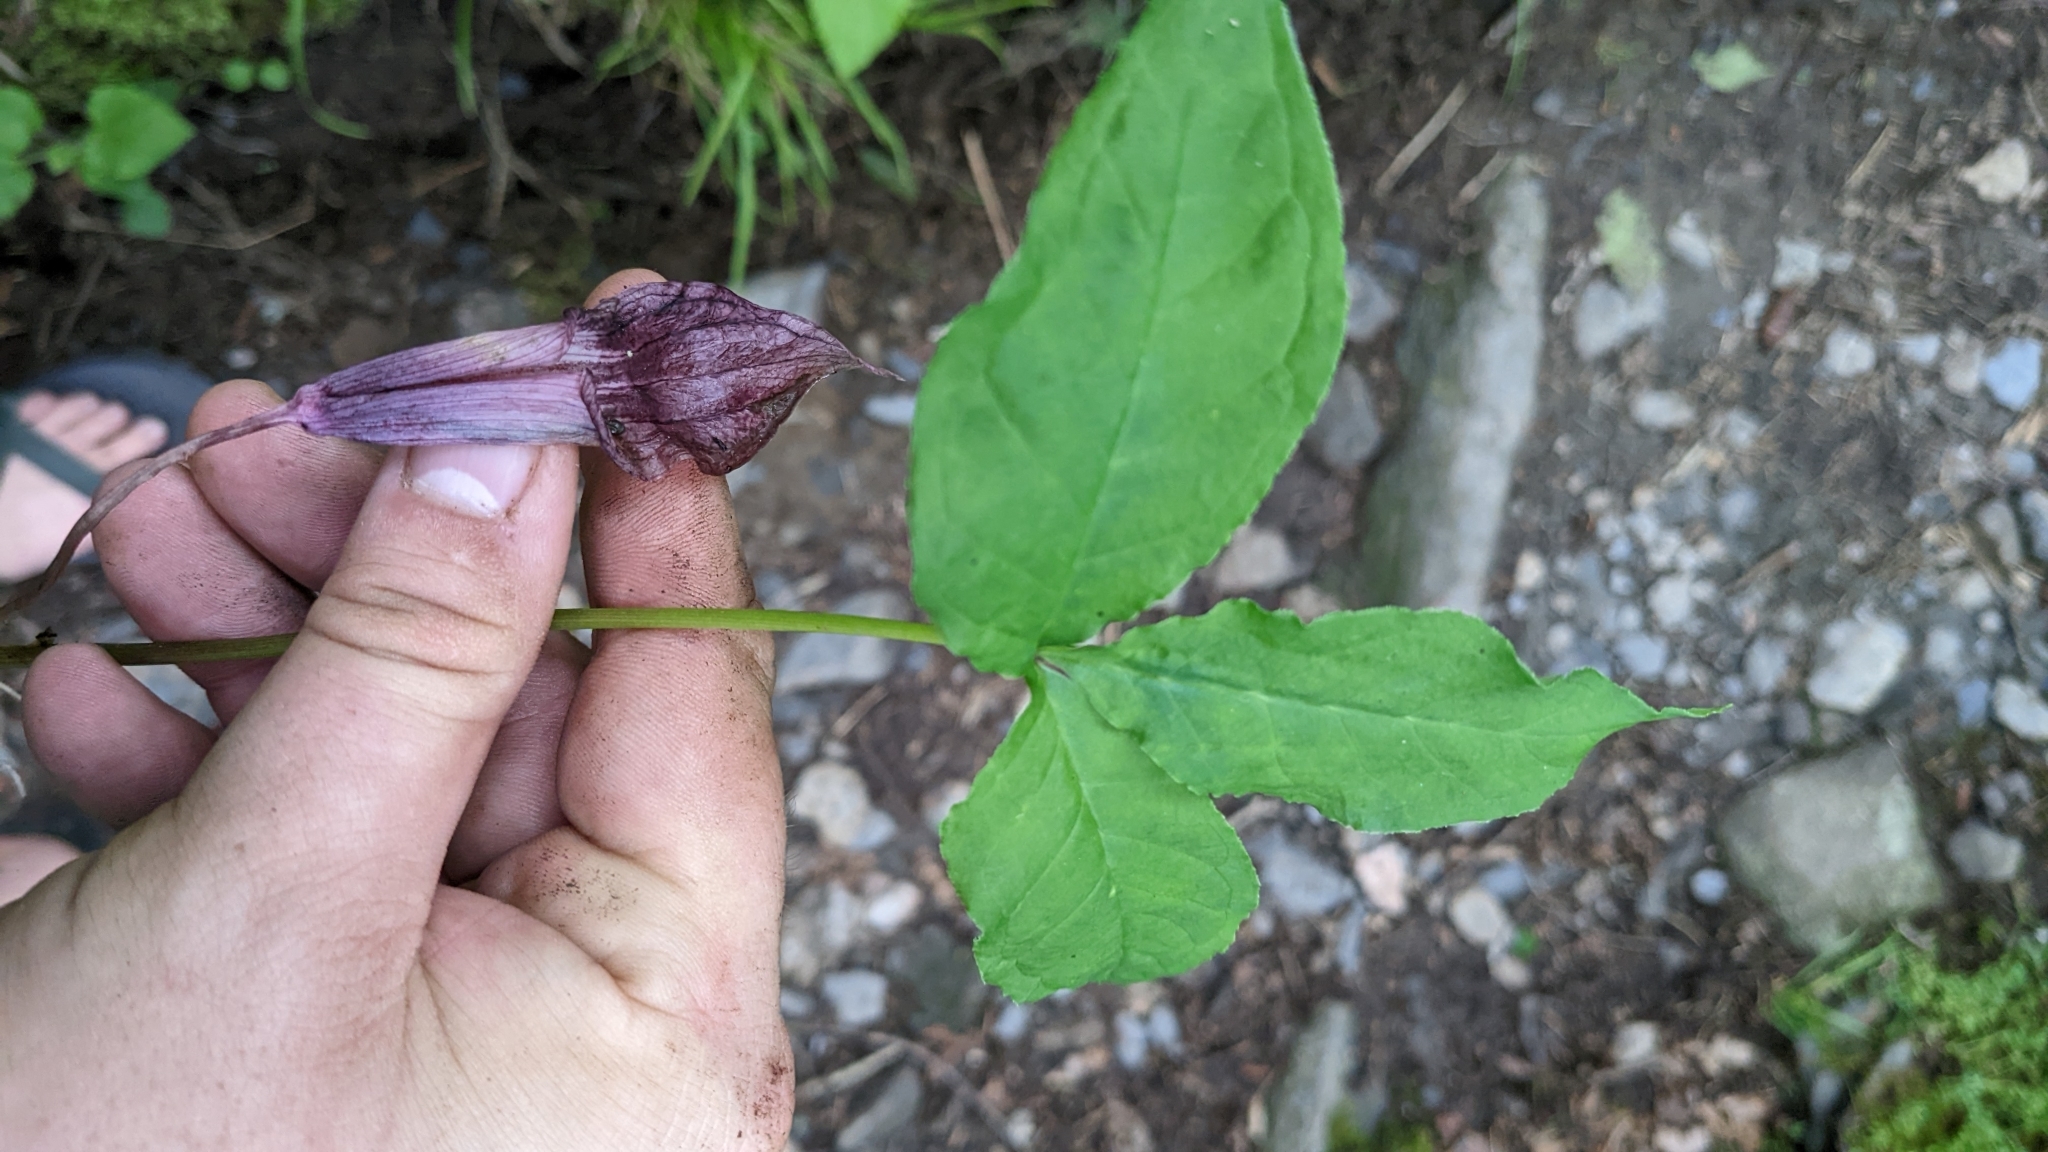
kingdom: Plantae
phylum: Tracheophyta
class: Liliopsida
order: Alismatales
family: Araceae
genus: Arisaema
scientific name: Arisaema triphyllum
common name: Jack-in-the-pulpit
